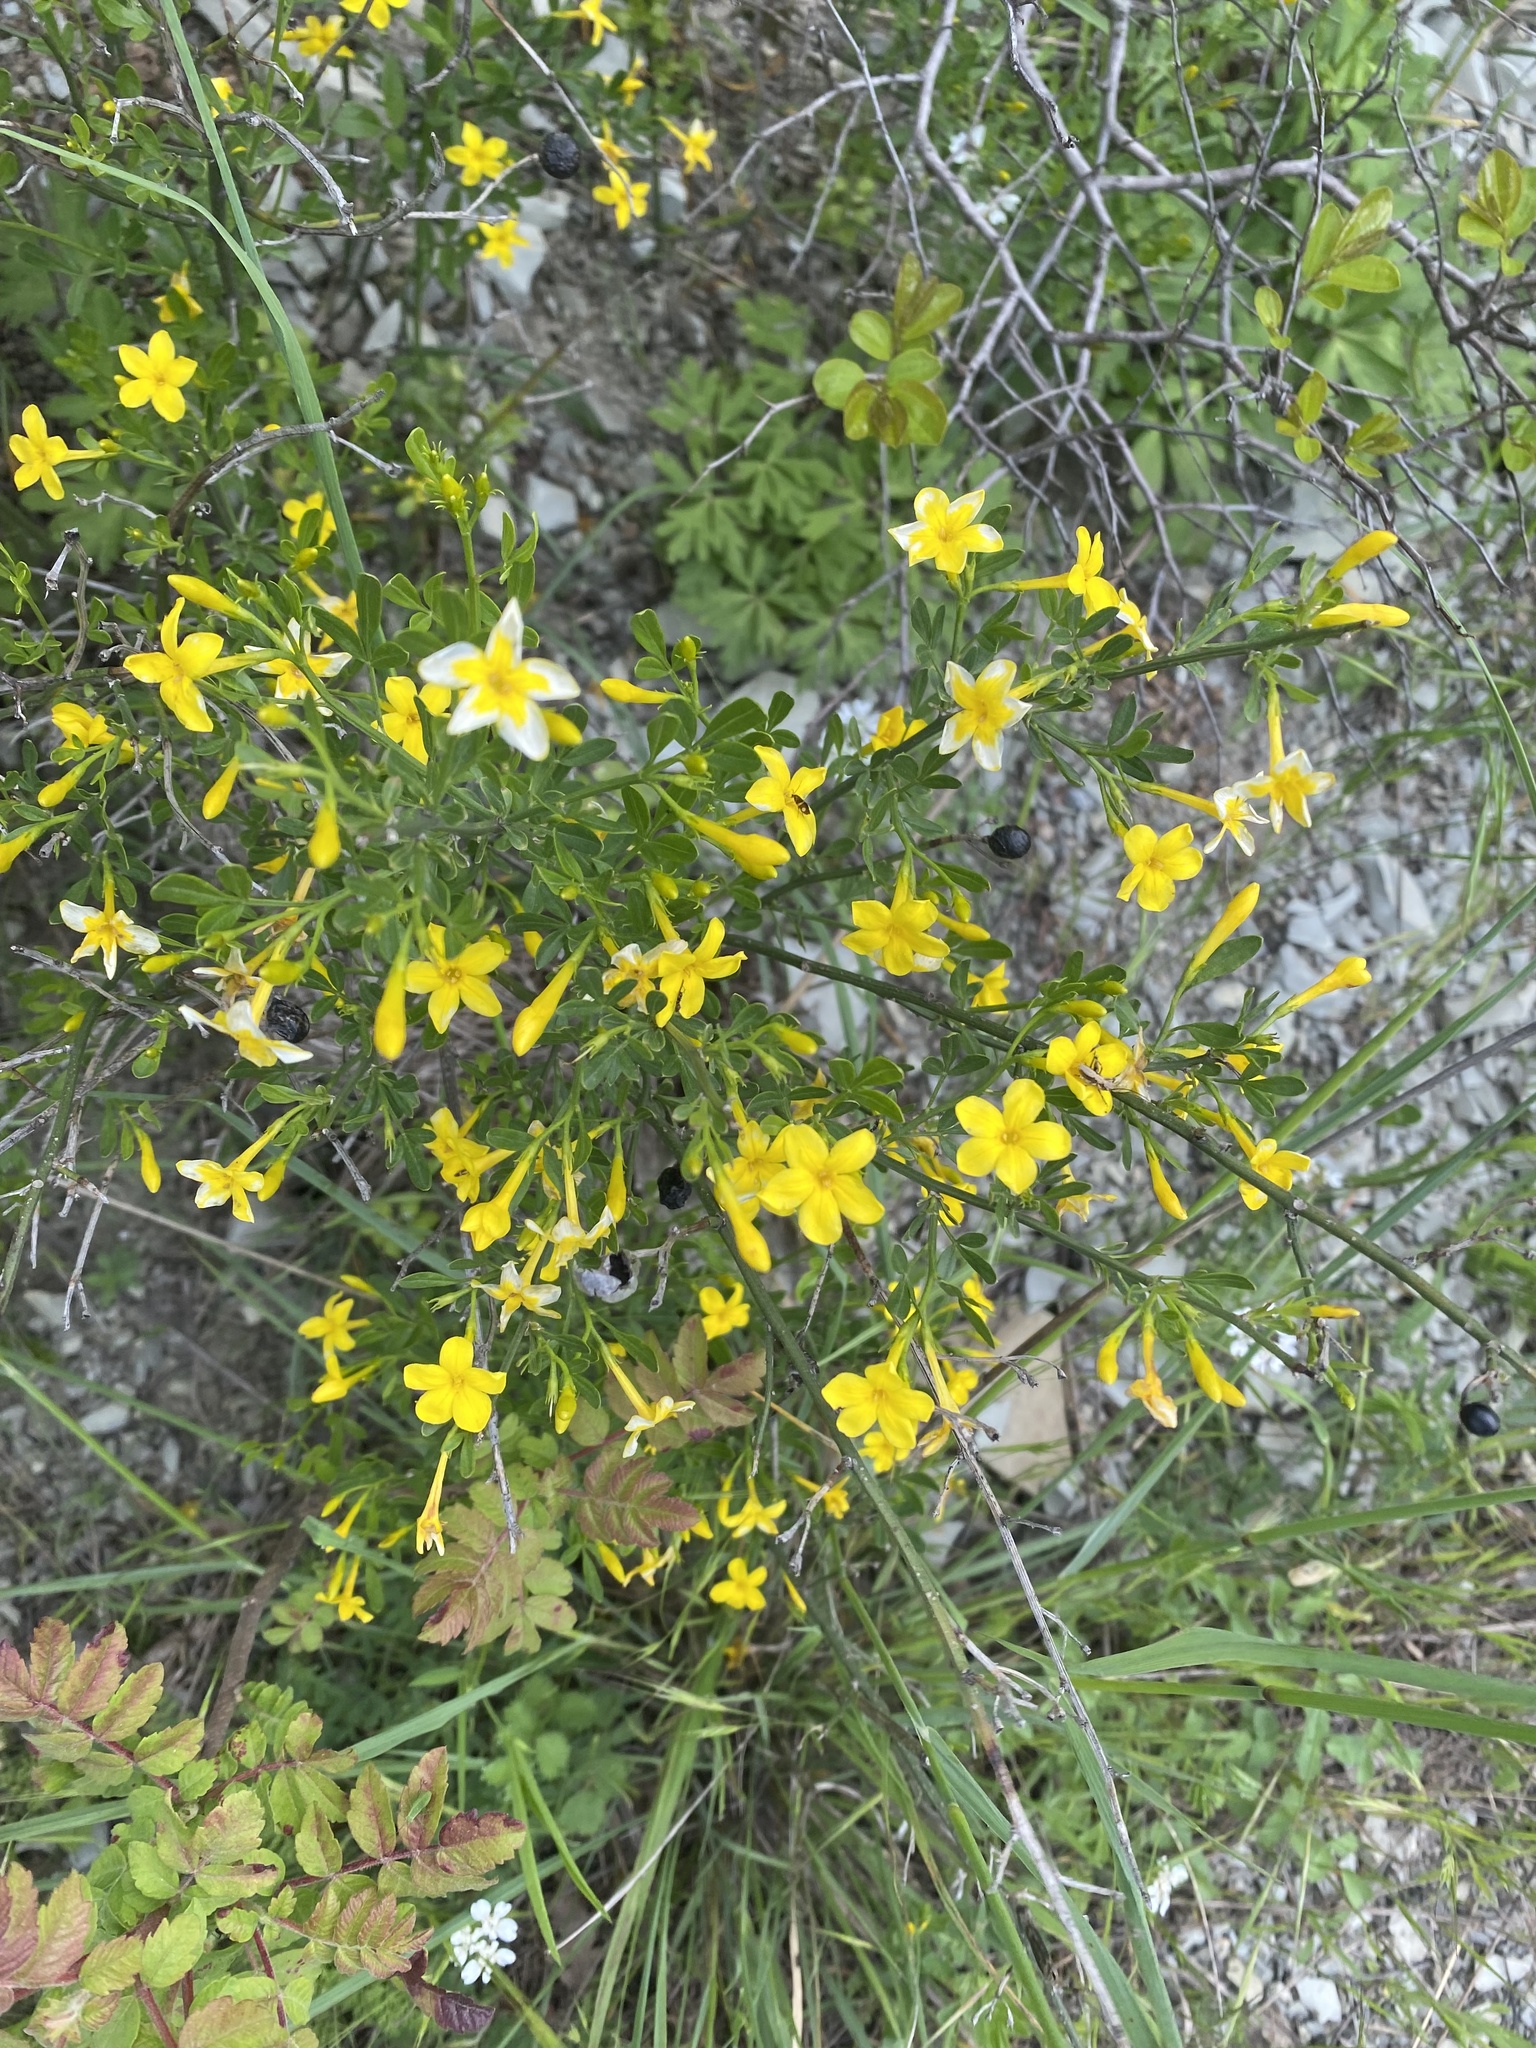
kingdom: Plantae
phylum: Tracheophyta
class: Magnoliopsida
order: Lamiales
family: Oleaceae
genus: Chrysojasminum
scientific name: Chrysojasminum fruticans
